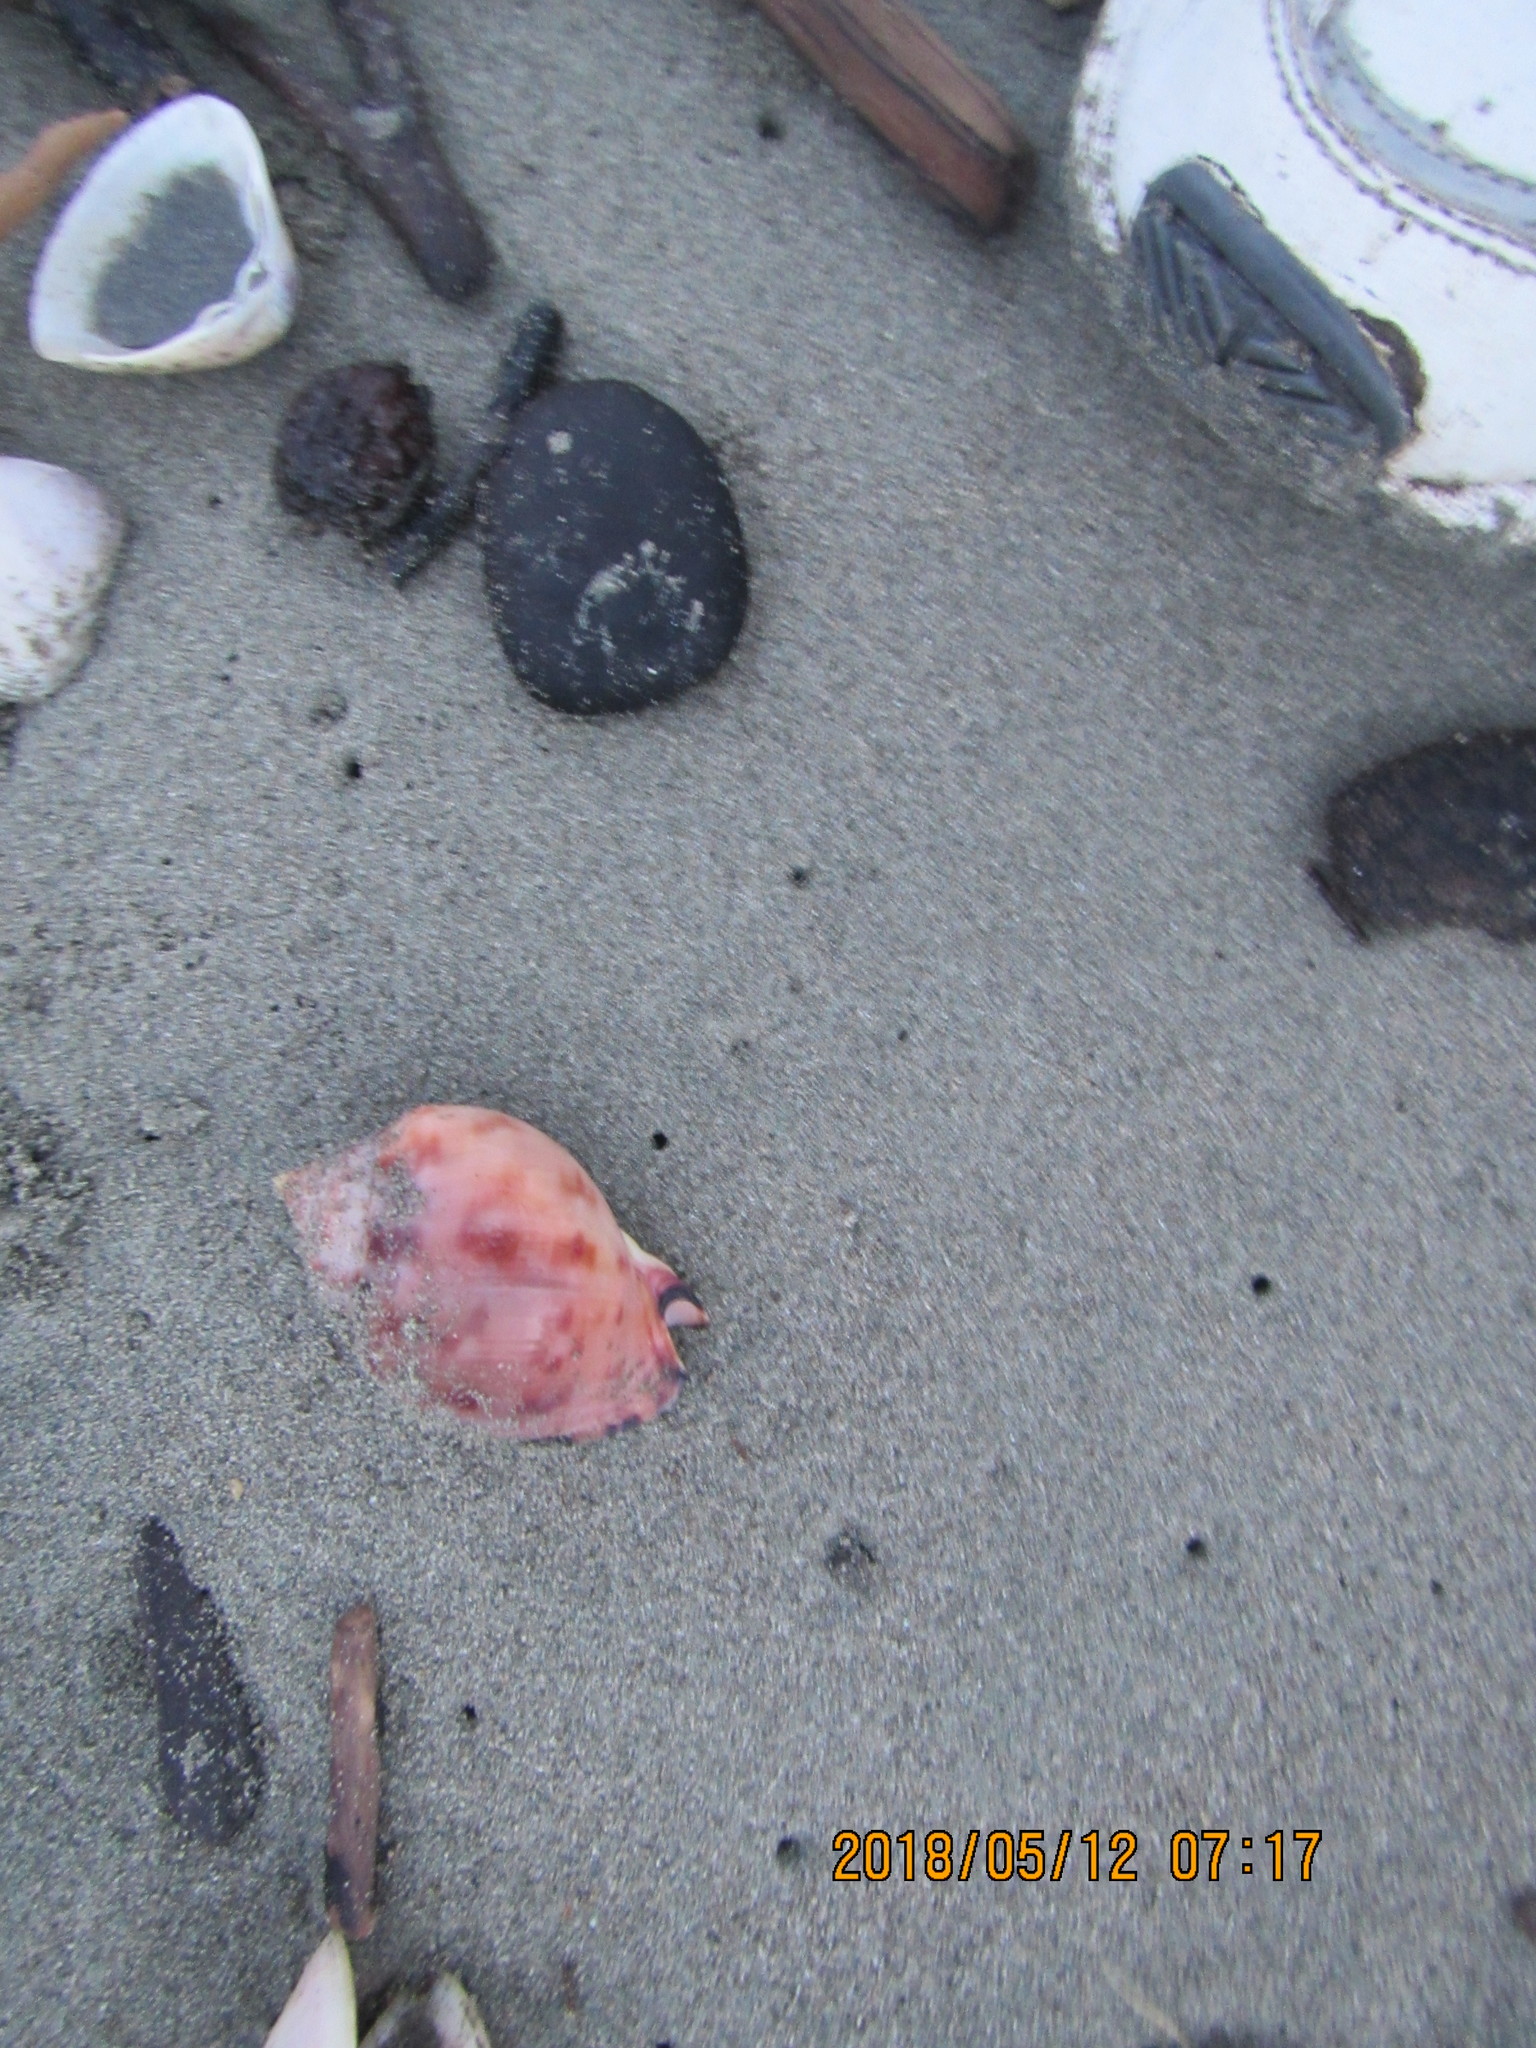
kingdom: Animalia
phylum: Mollusca
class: Gastropoda
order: Littorinimorpha
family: Cassidae
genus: Semicassis
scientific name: Semicassis pyrum
